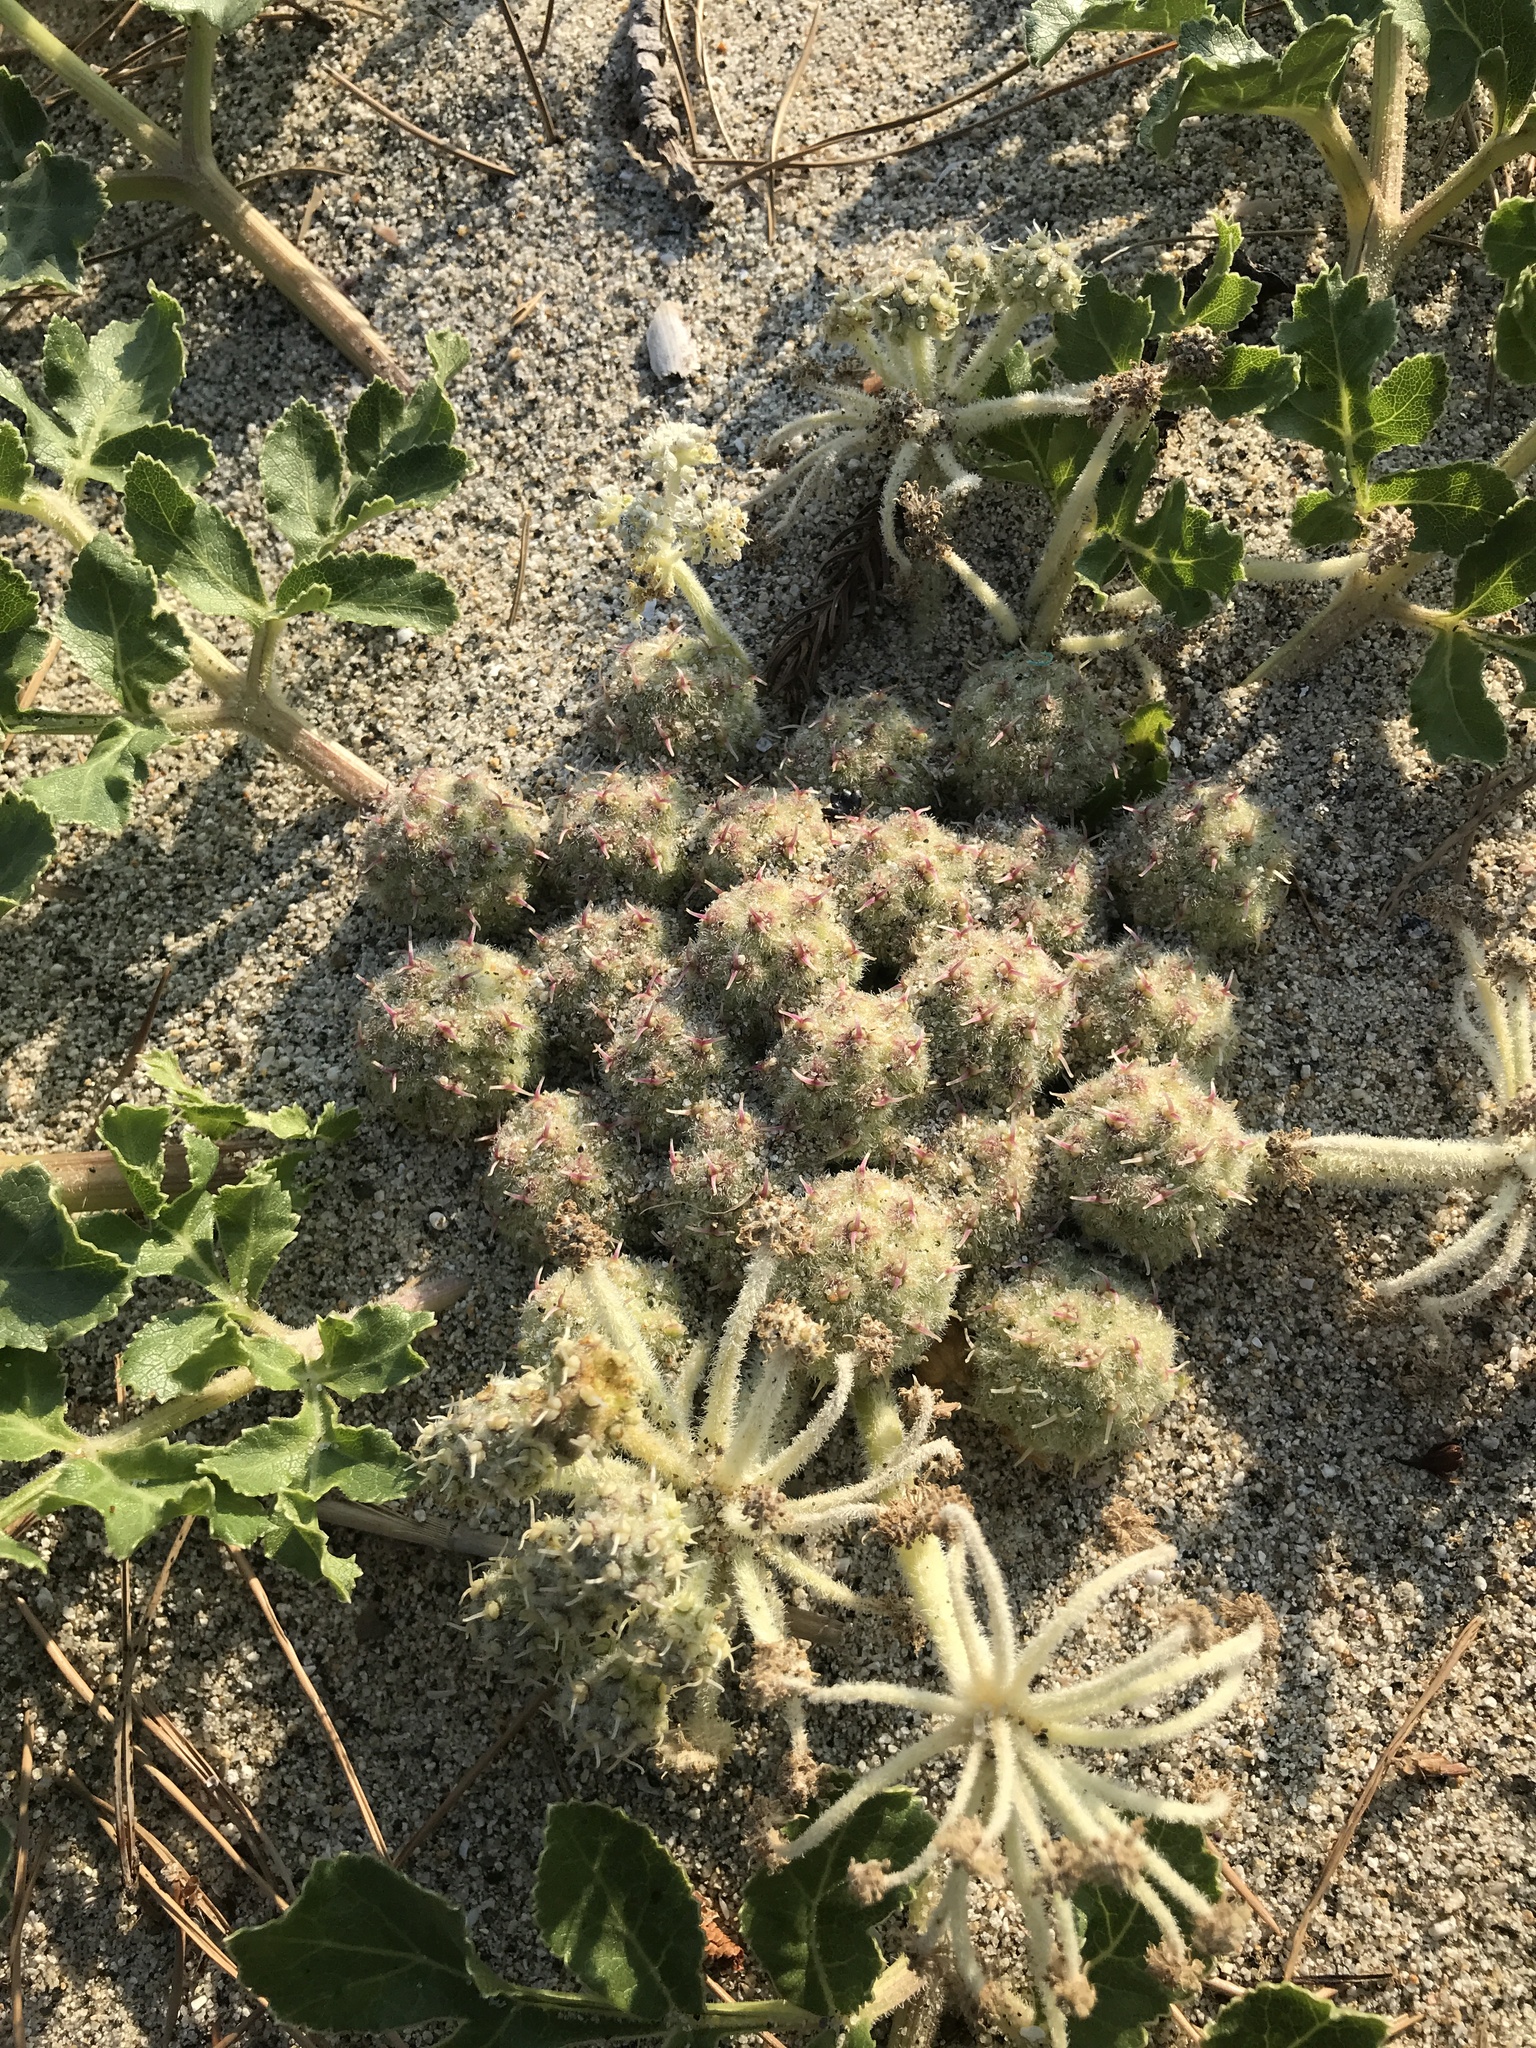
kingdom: Plantae
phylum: Tracheophyta
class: Magnoliopsida
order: Apiales
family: Apiaceae
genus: Glehnia
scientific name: Glehnia littoralis
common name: Beach silvertop
